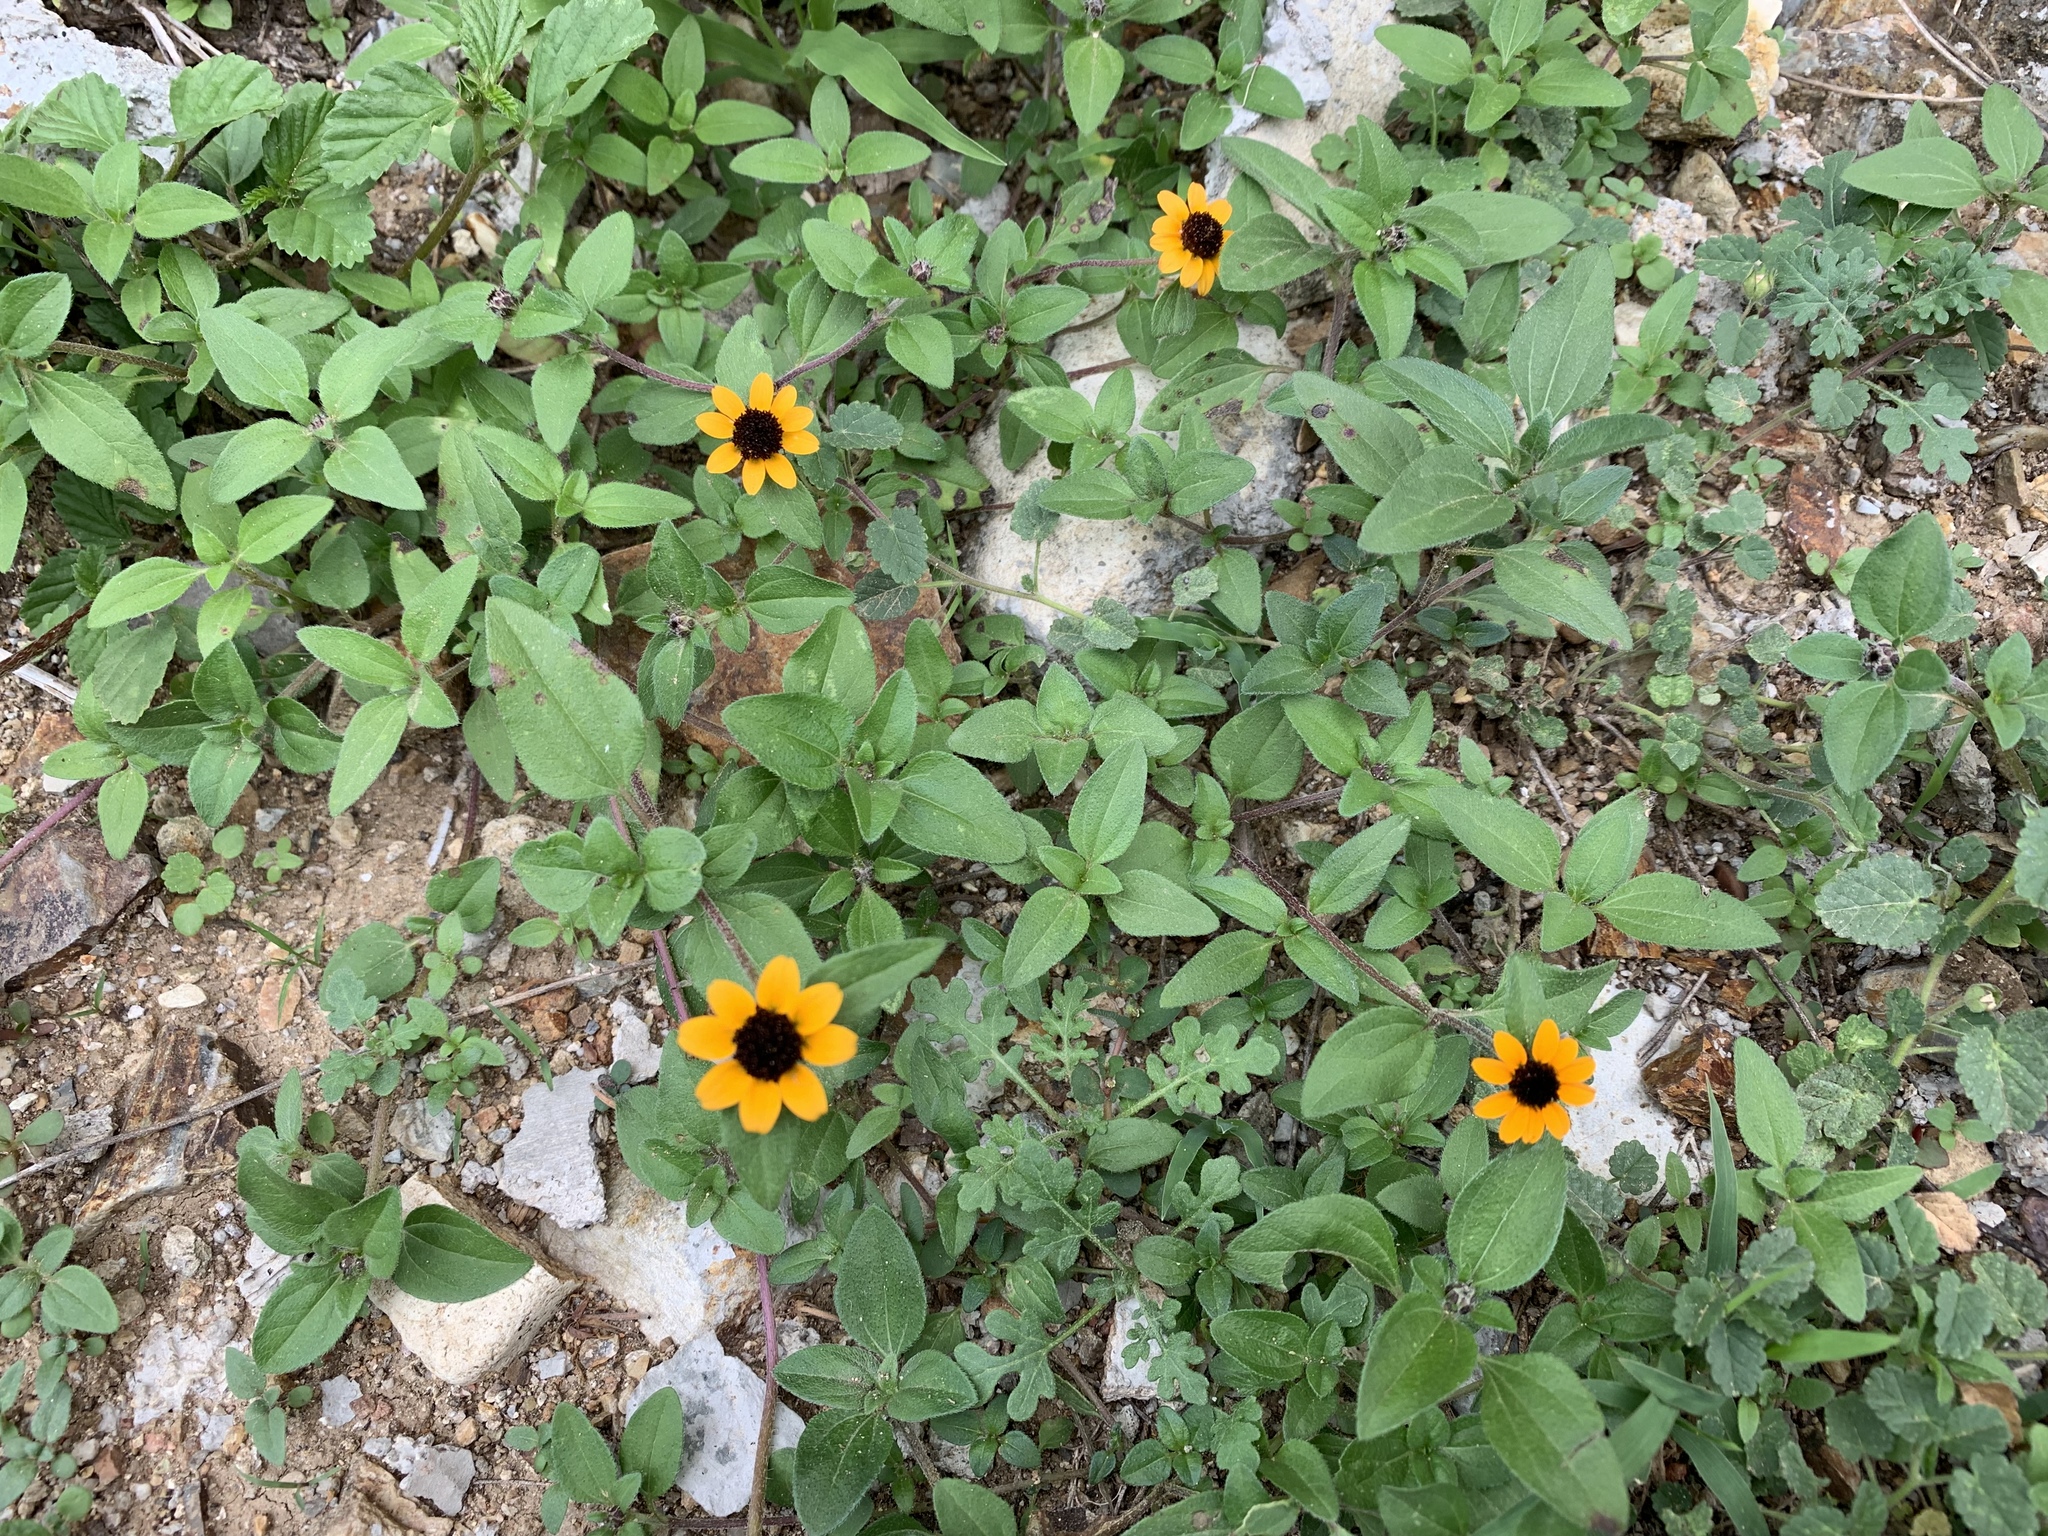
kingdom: Plantae
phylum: Tracheophyta
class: Magnoliopsida
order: Asterales
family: Asteraceae
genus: Sanvitalia
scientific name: Sanvitalia procumbens
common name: Mexican creeping zinnia
